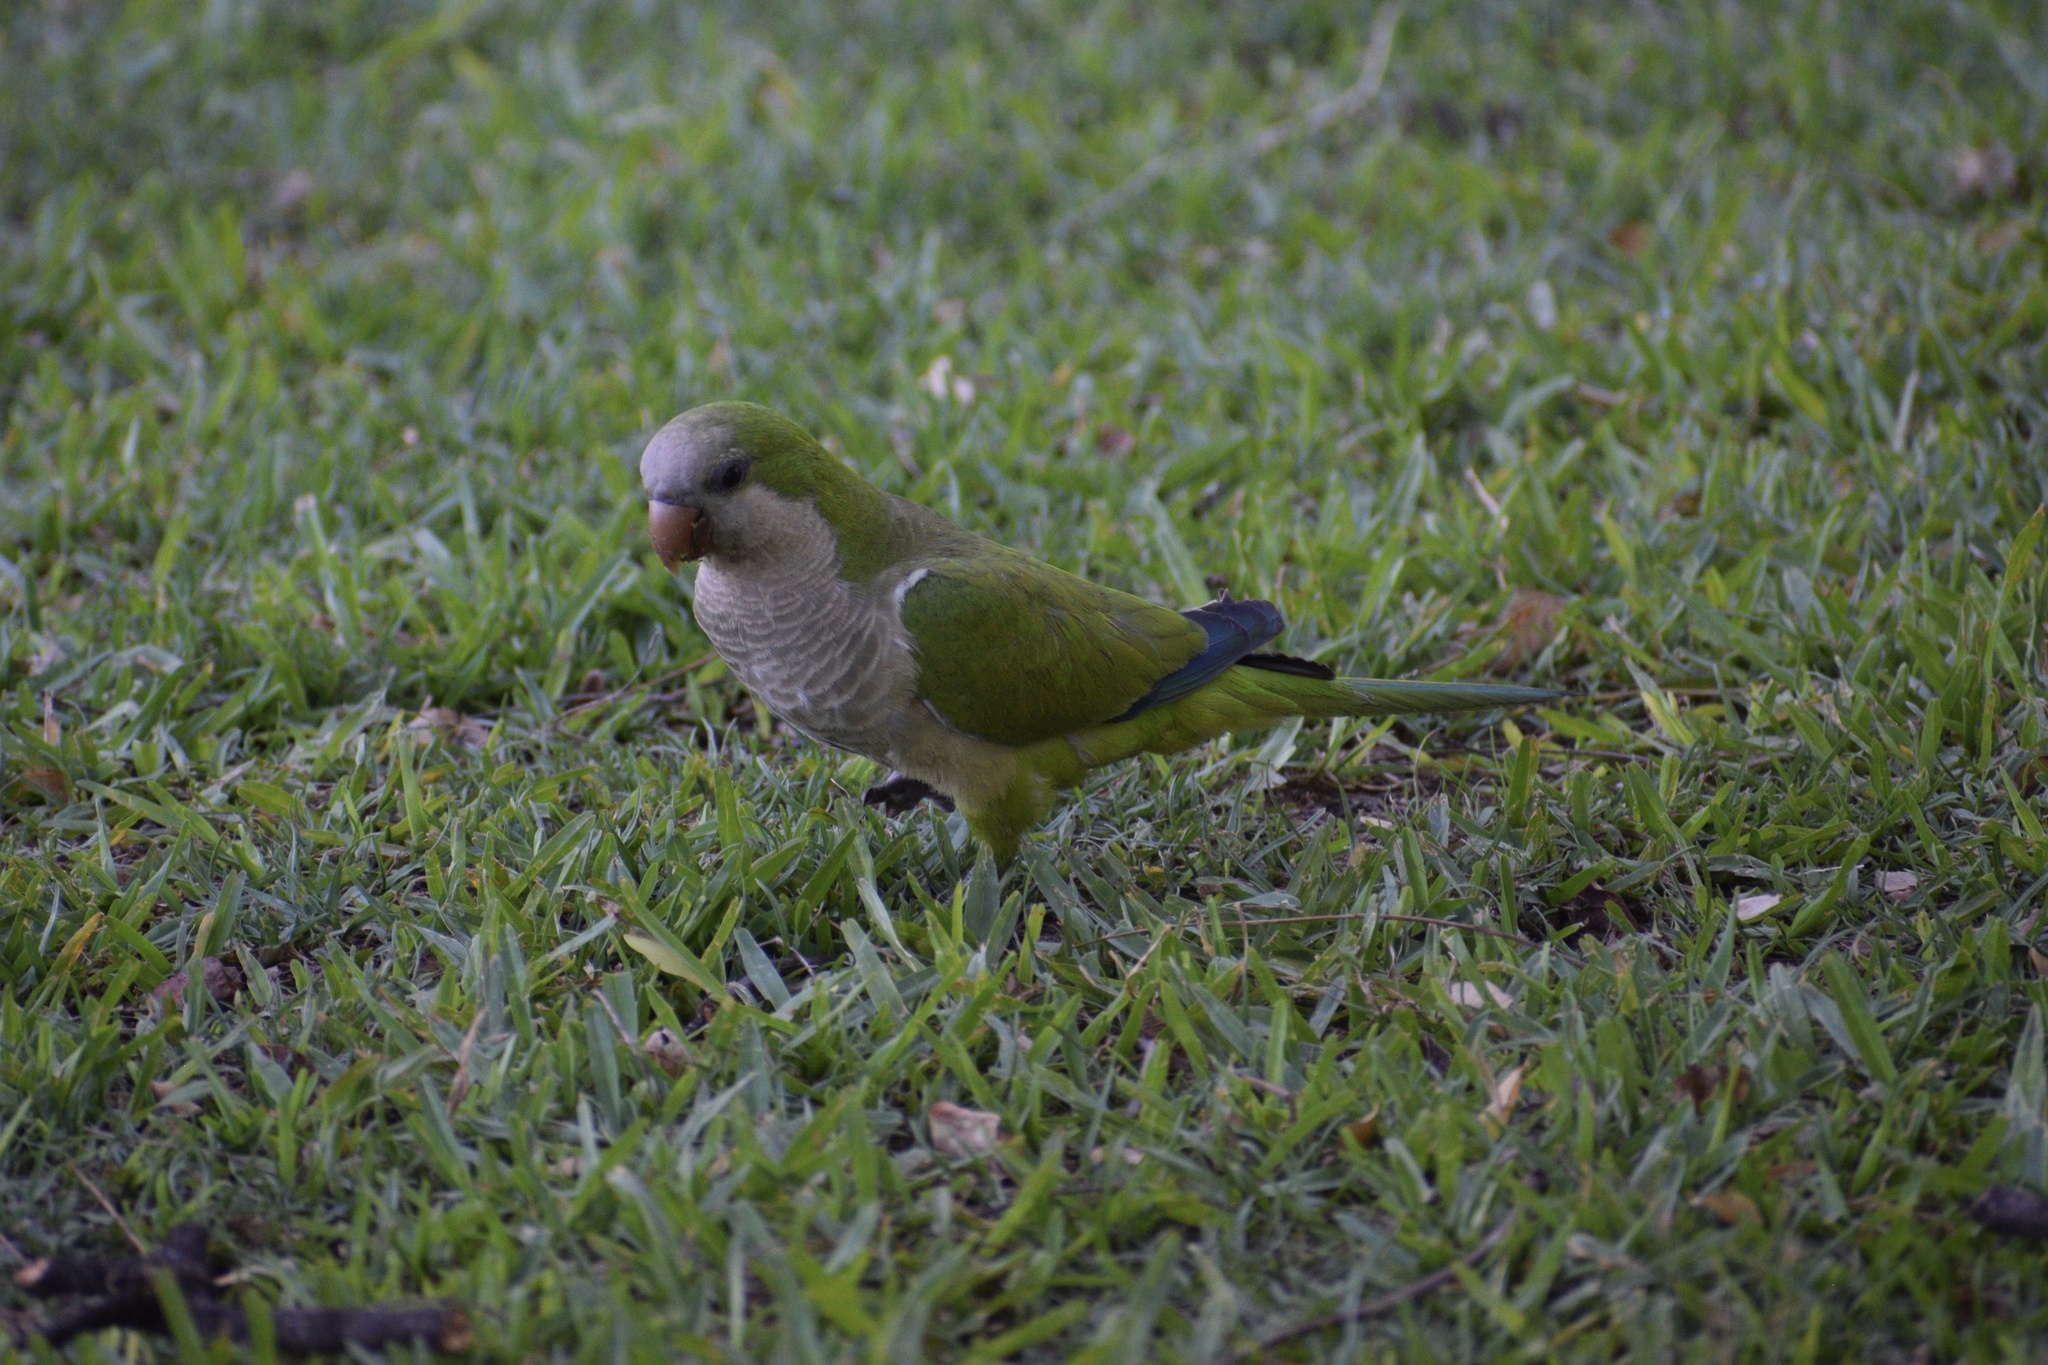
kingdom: Animalia
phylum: Chordata
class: Aves
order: Psittaciformes
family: Psittacidae
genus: Myiopsitta
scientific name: Myiopsitta monachus
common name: Monk parakeet
